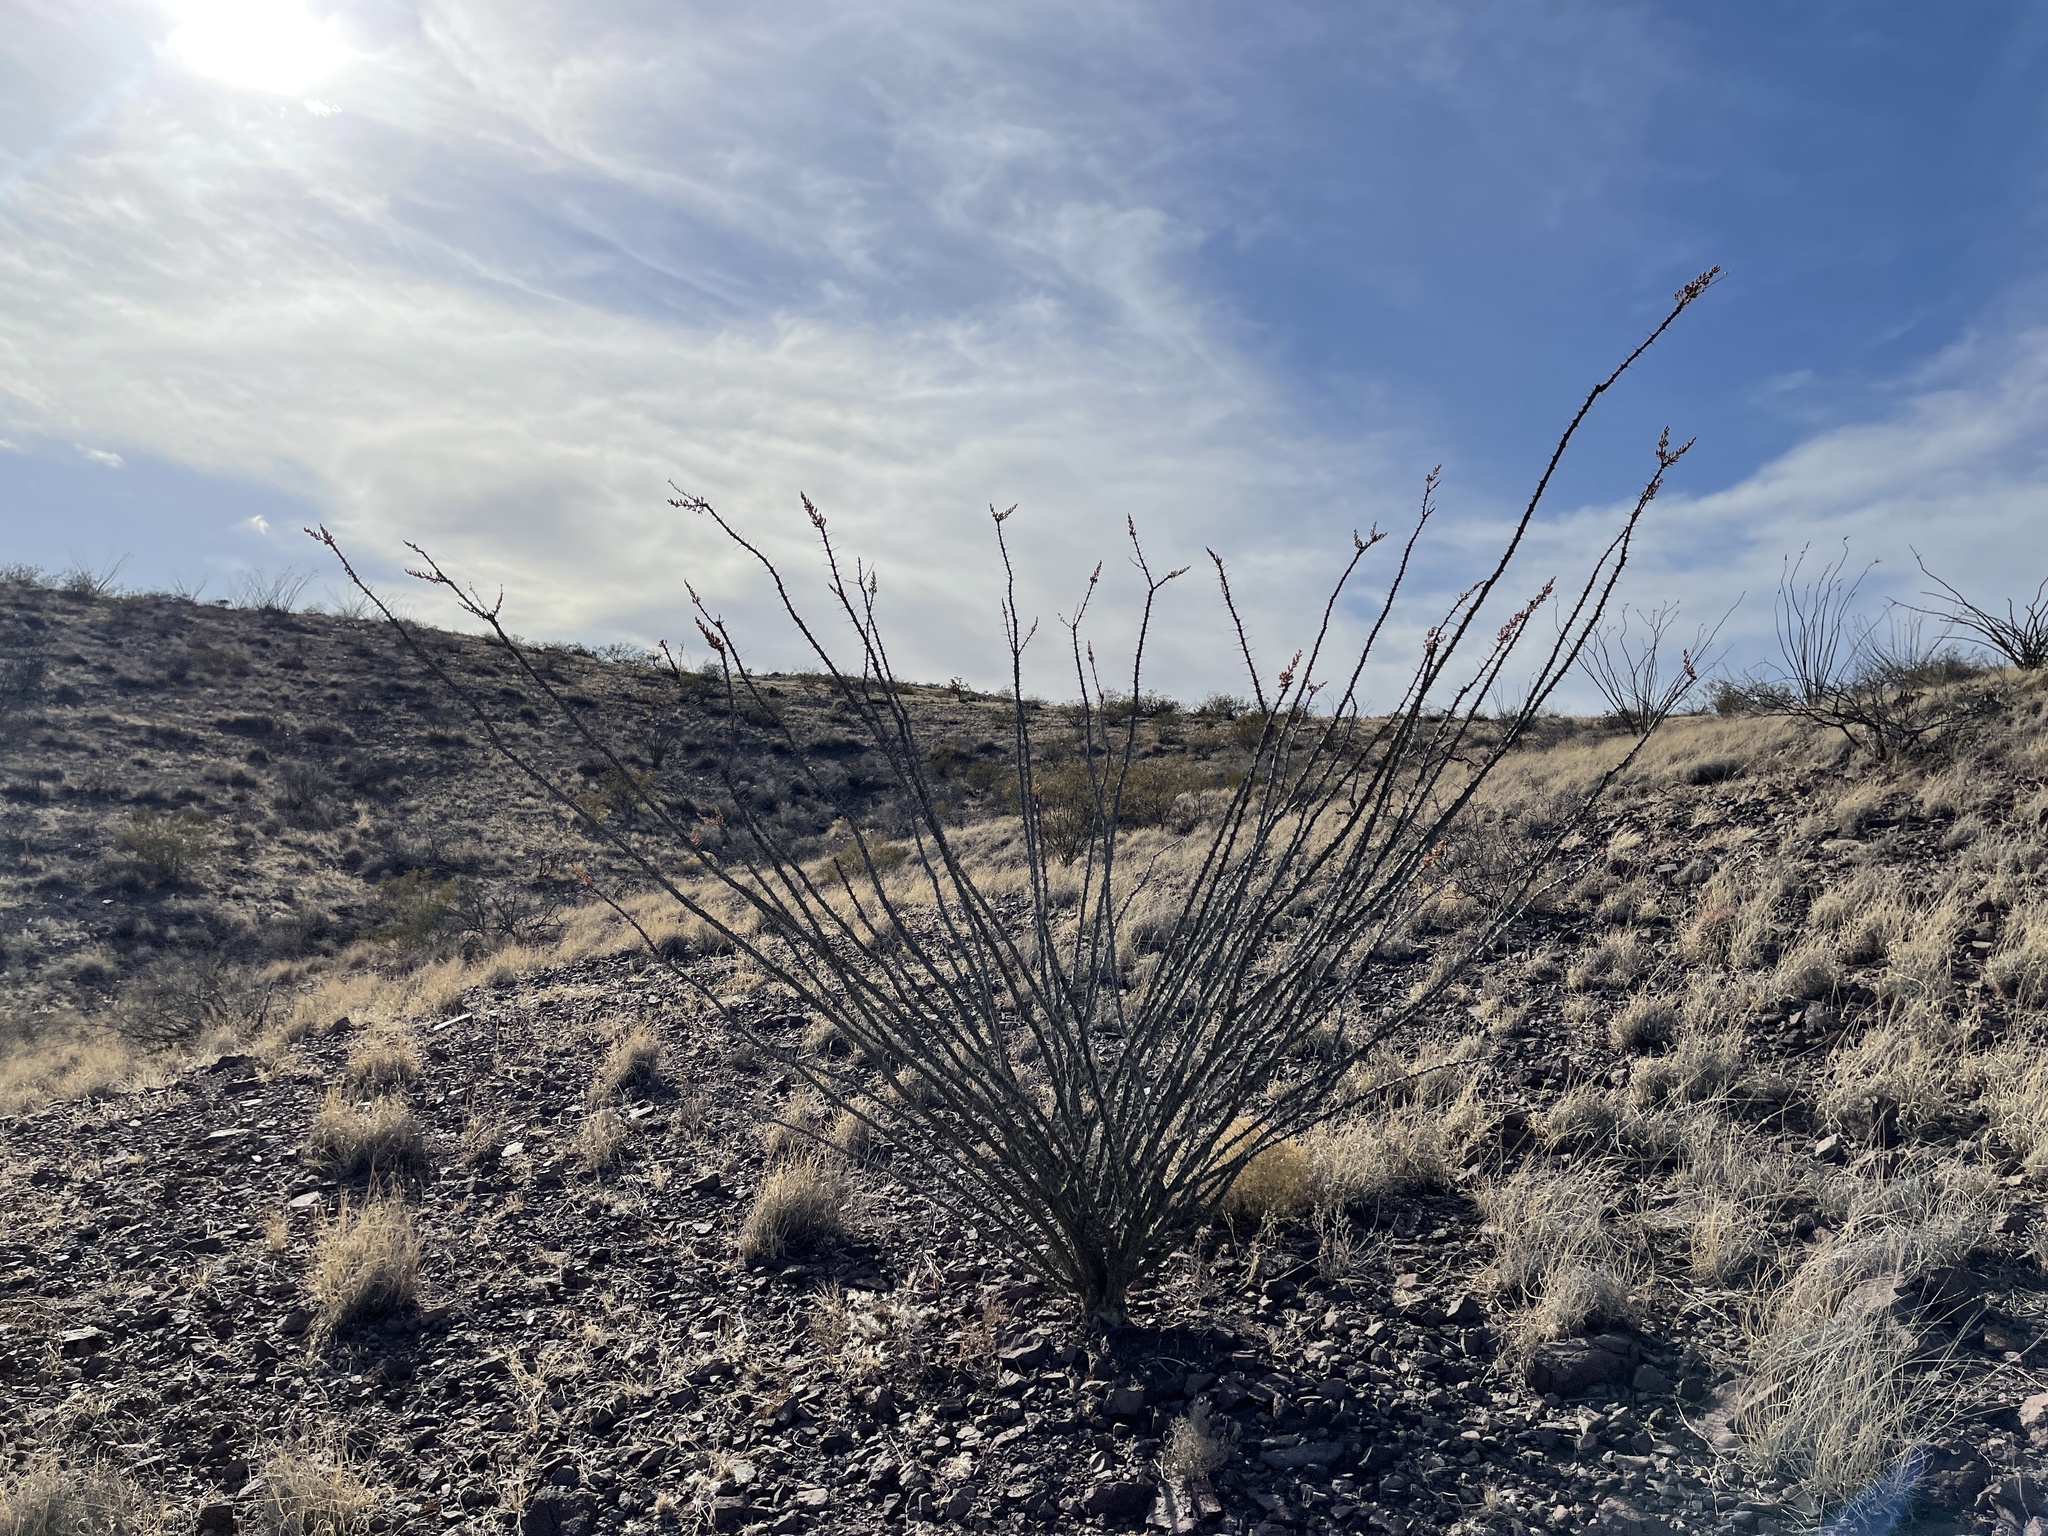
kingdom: Plantae
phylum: Tracheophyta
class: Magnoliopsida
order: Ericales
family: Fouquieriaceae
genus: Fouquieria
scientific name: Fouquieria splendens
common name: Vine-cactus
